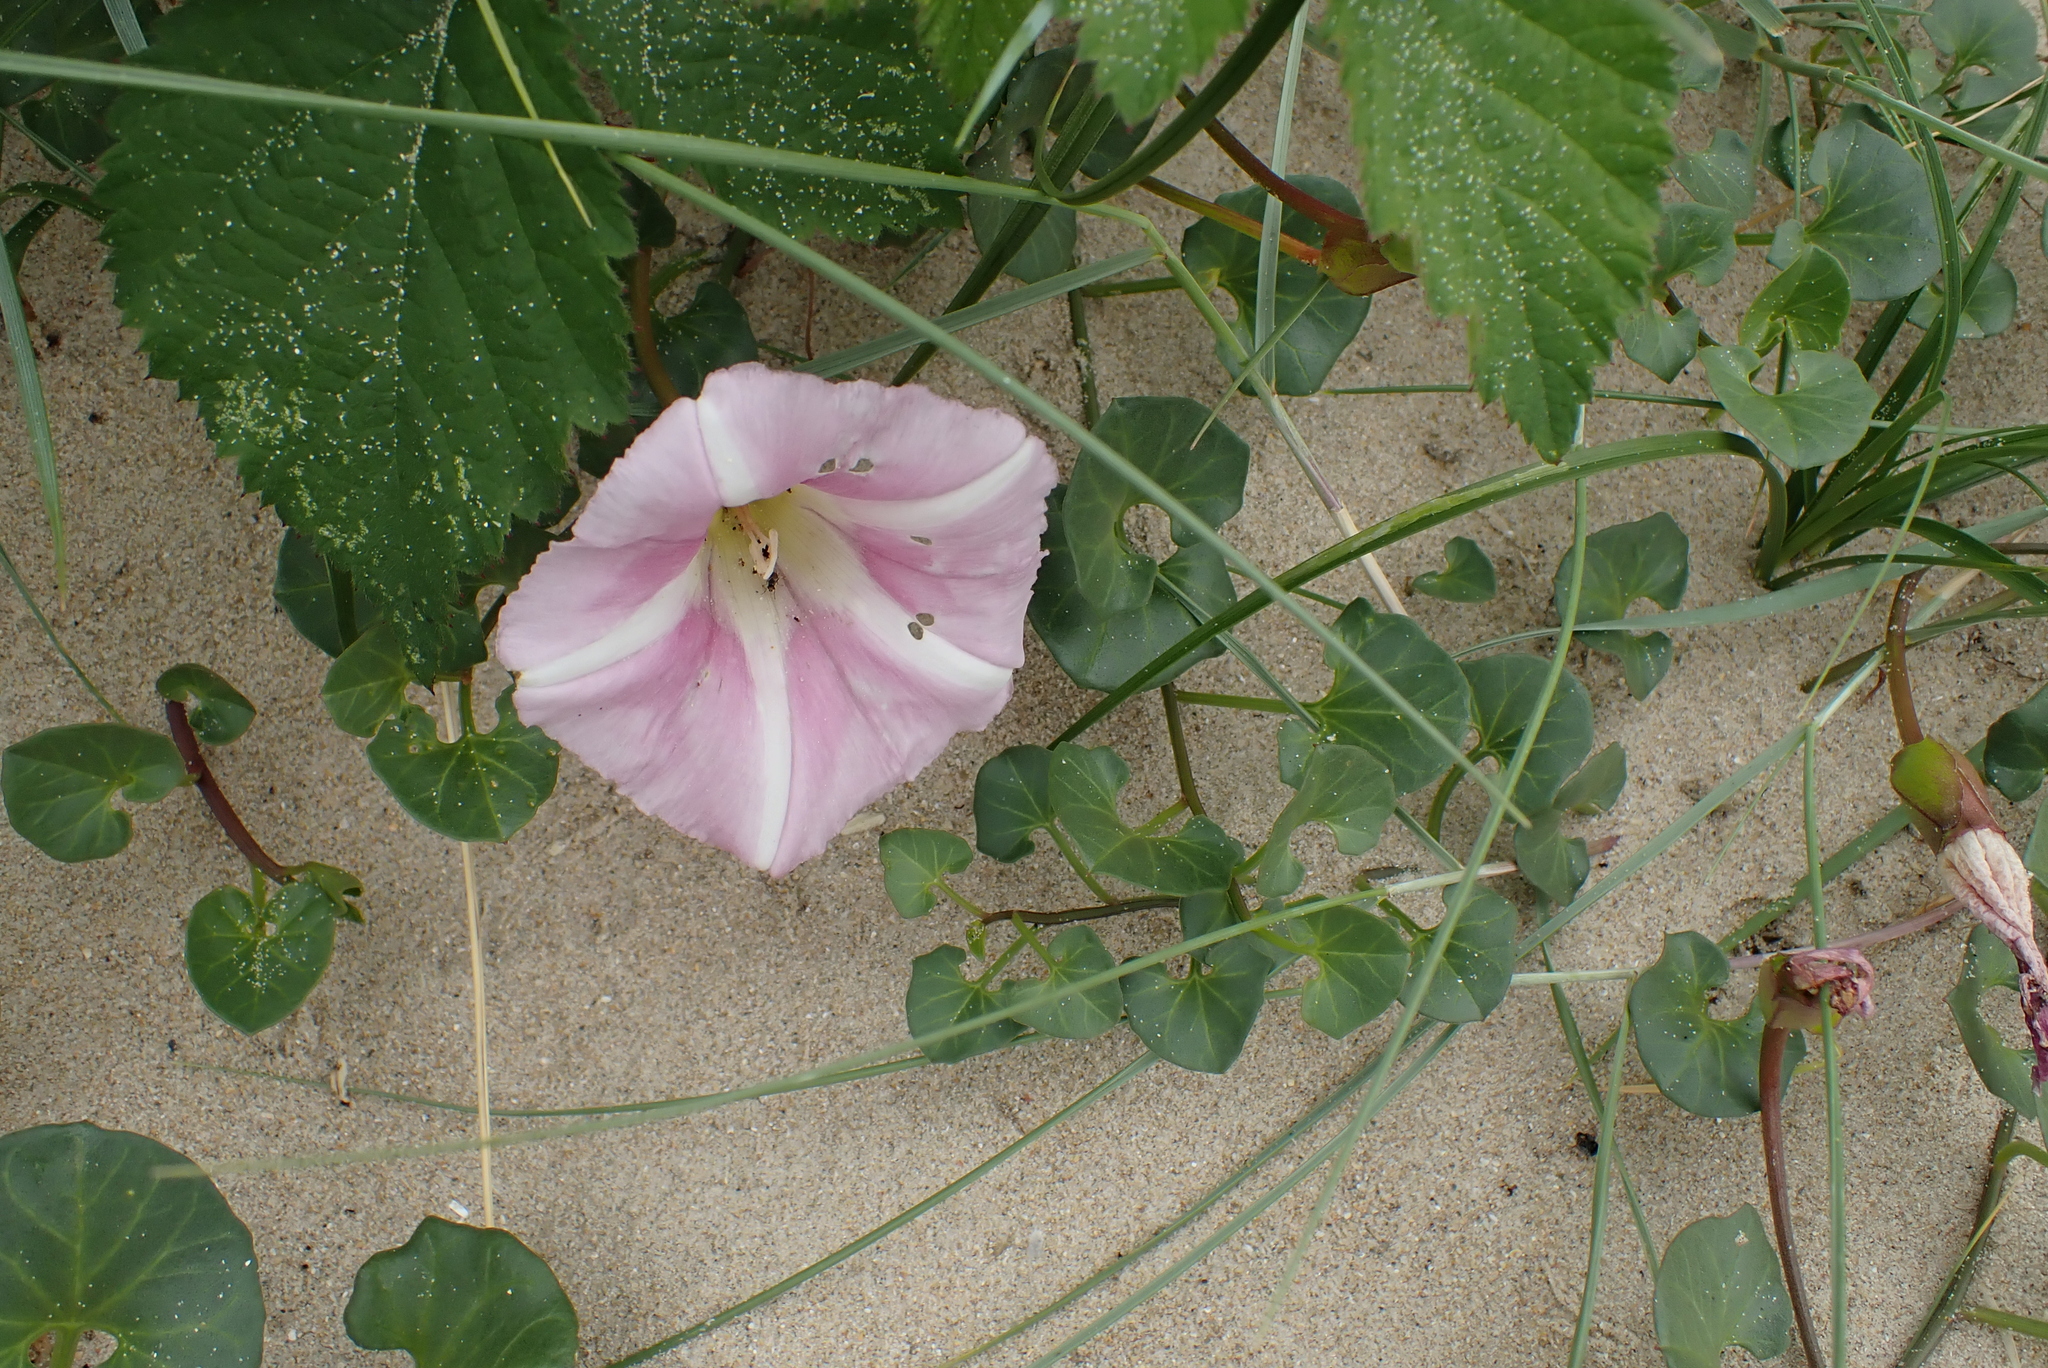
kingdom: Plantae
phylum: Tracheophyta
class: Magnoliopsida
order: Solanales
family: Convolvulaceae
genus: Calystegia
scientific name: Calystegia soldanella
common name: Sea bindweed
